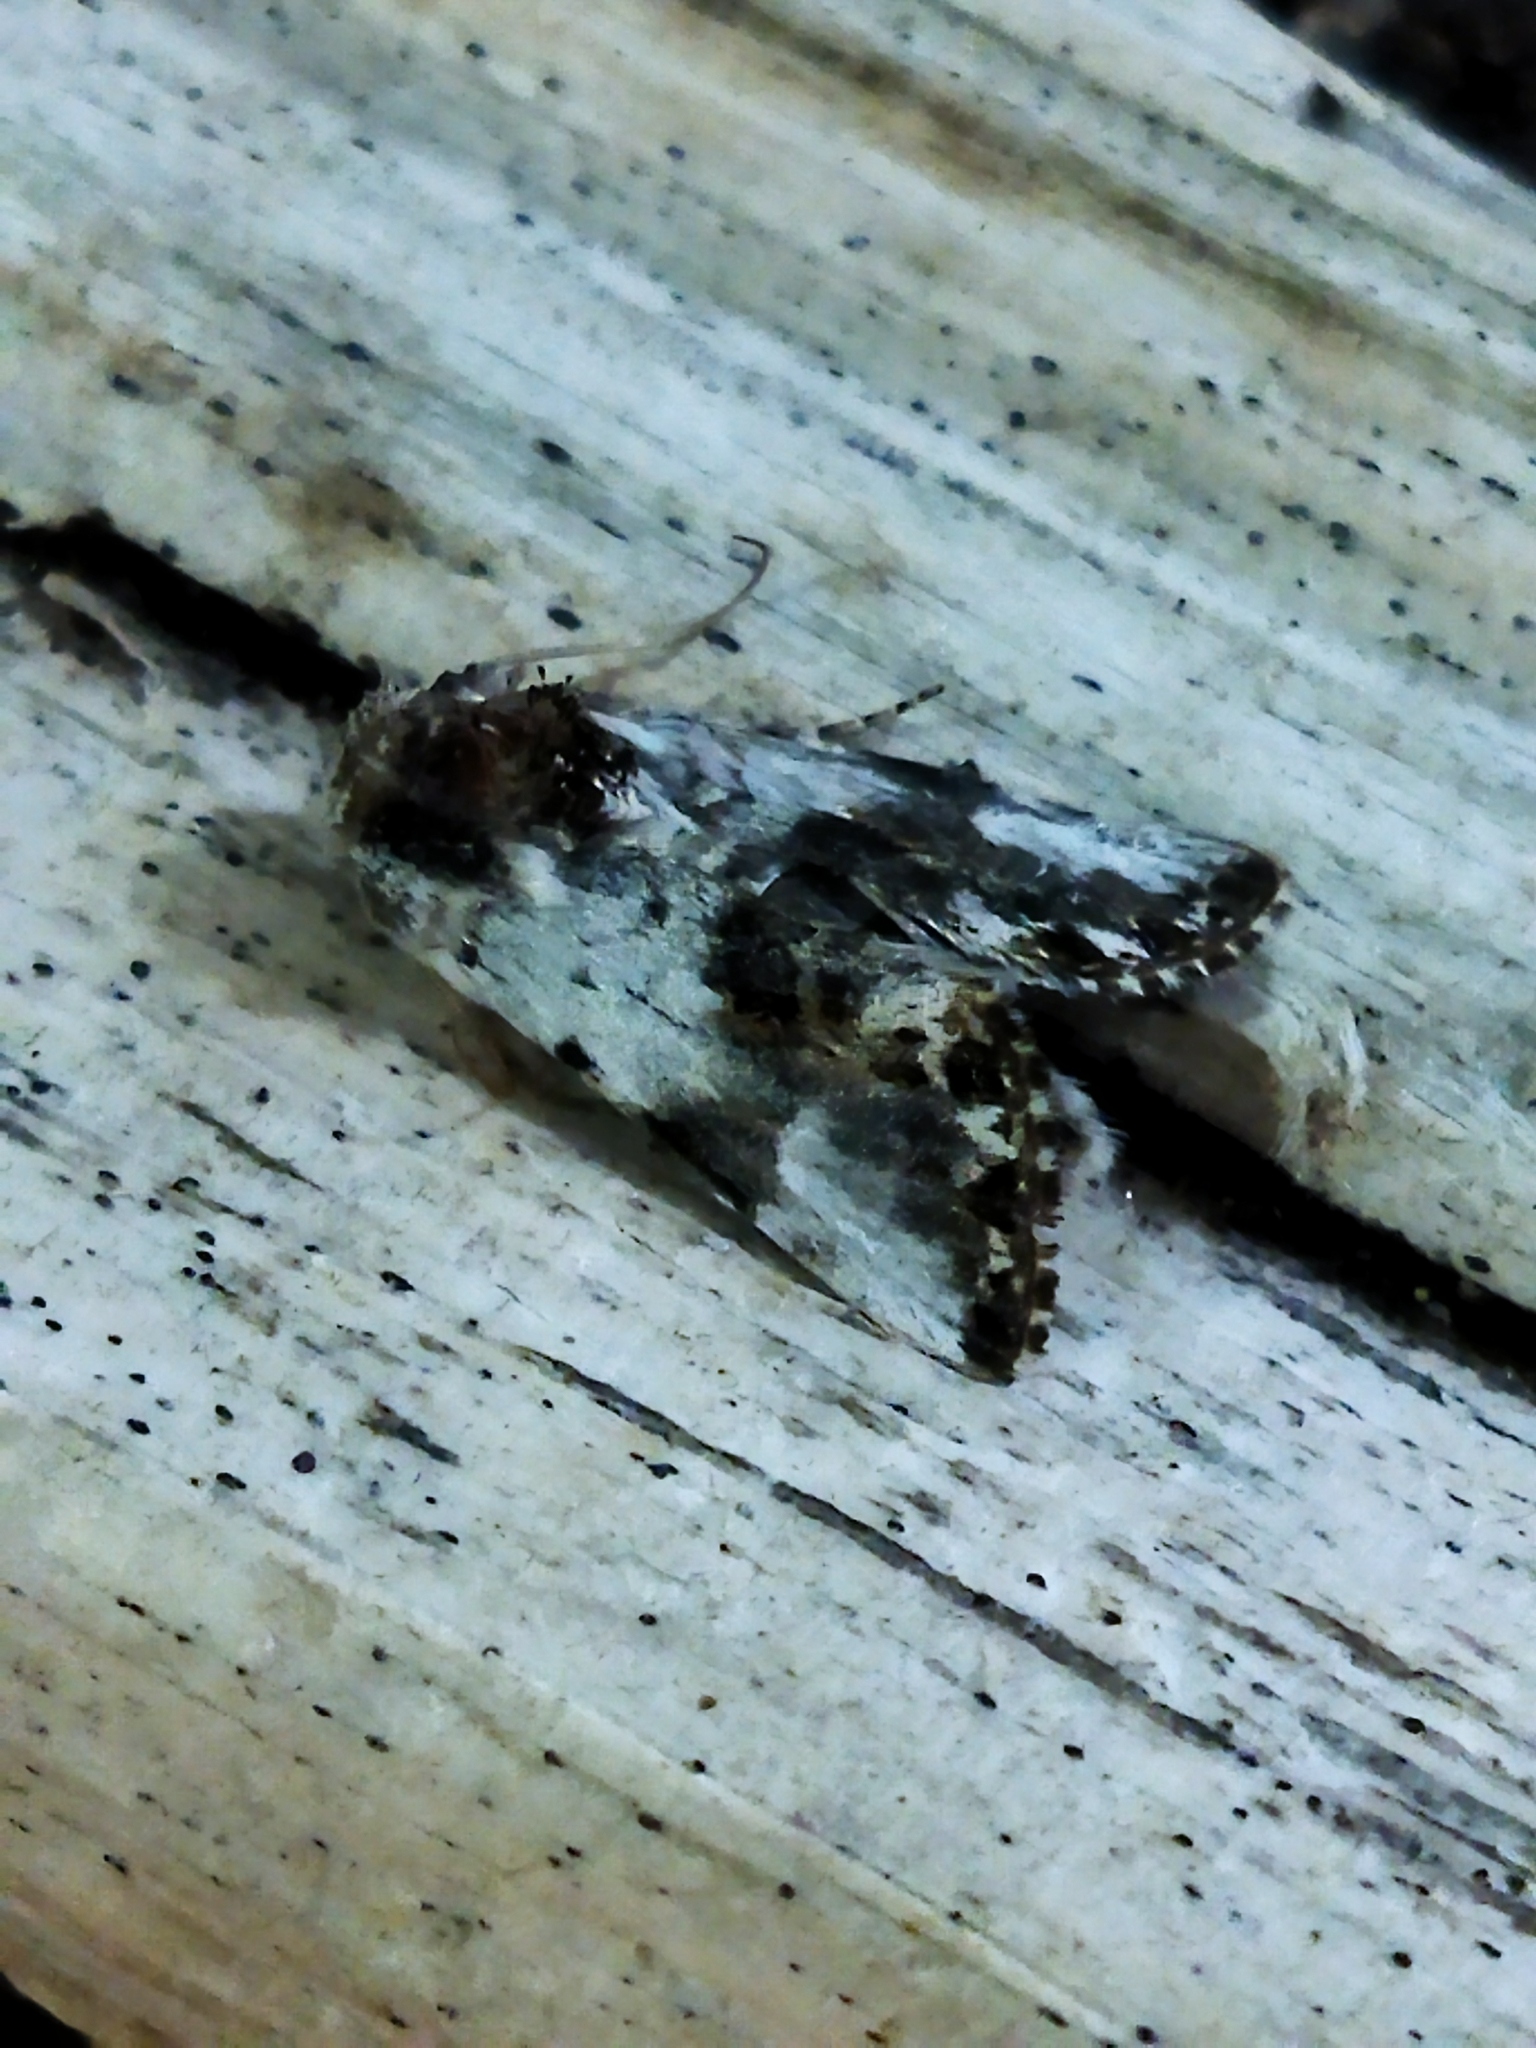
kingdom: Animalia
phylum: Arthropoda
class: Insecta
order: Lepidoptera
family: Noctuidae
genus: Calophasia
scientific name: Calophasia opalina
